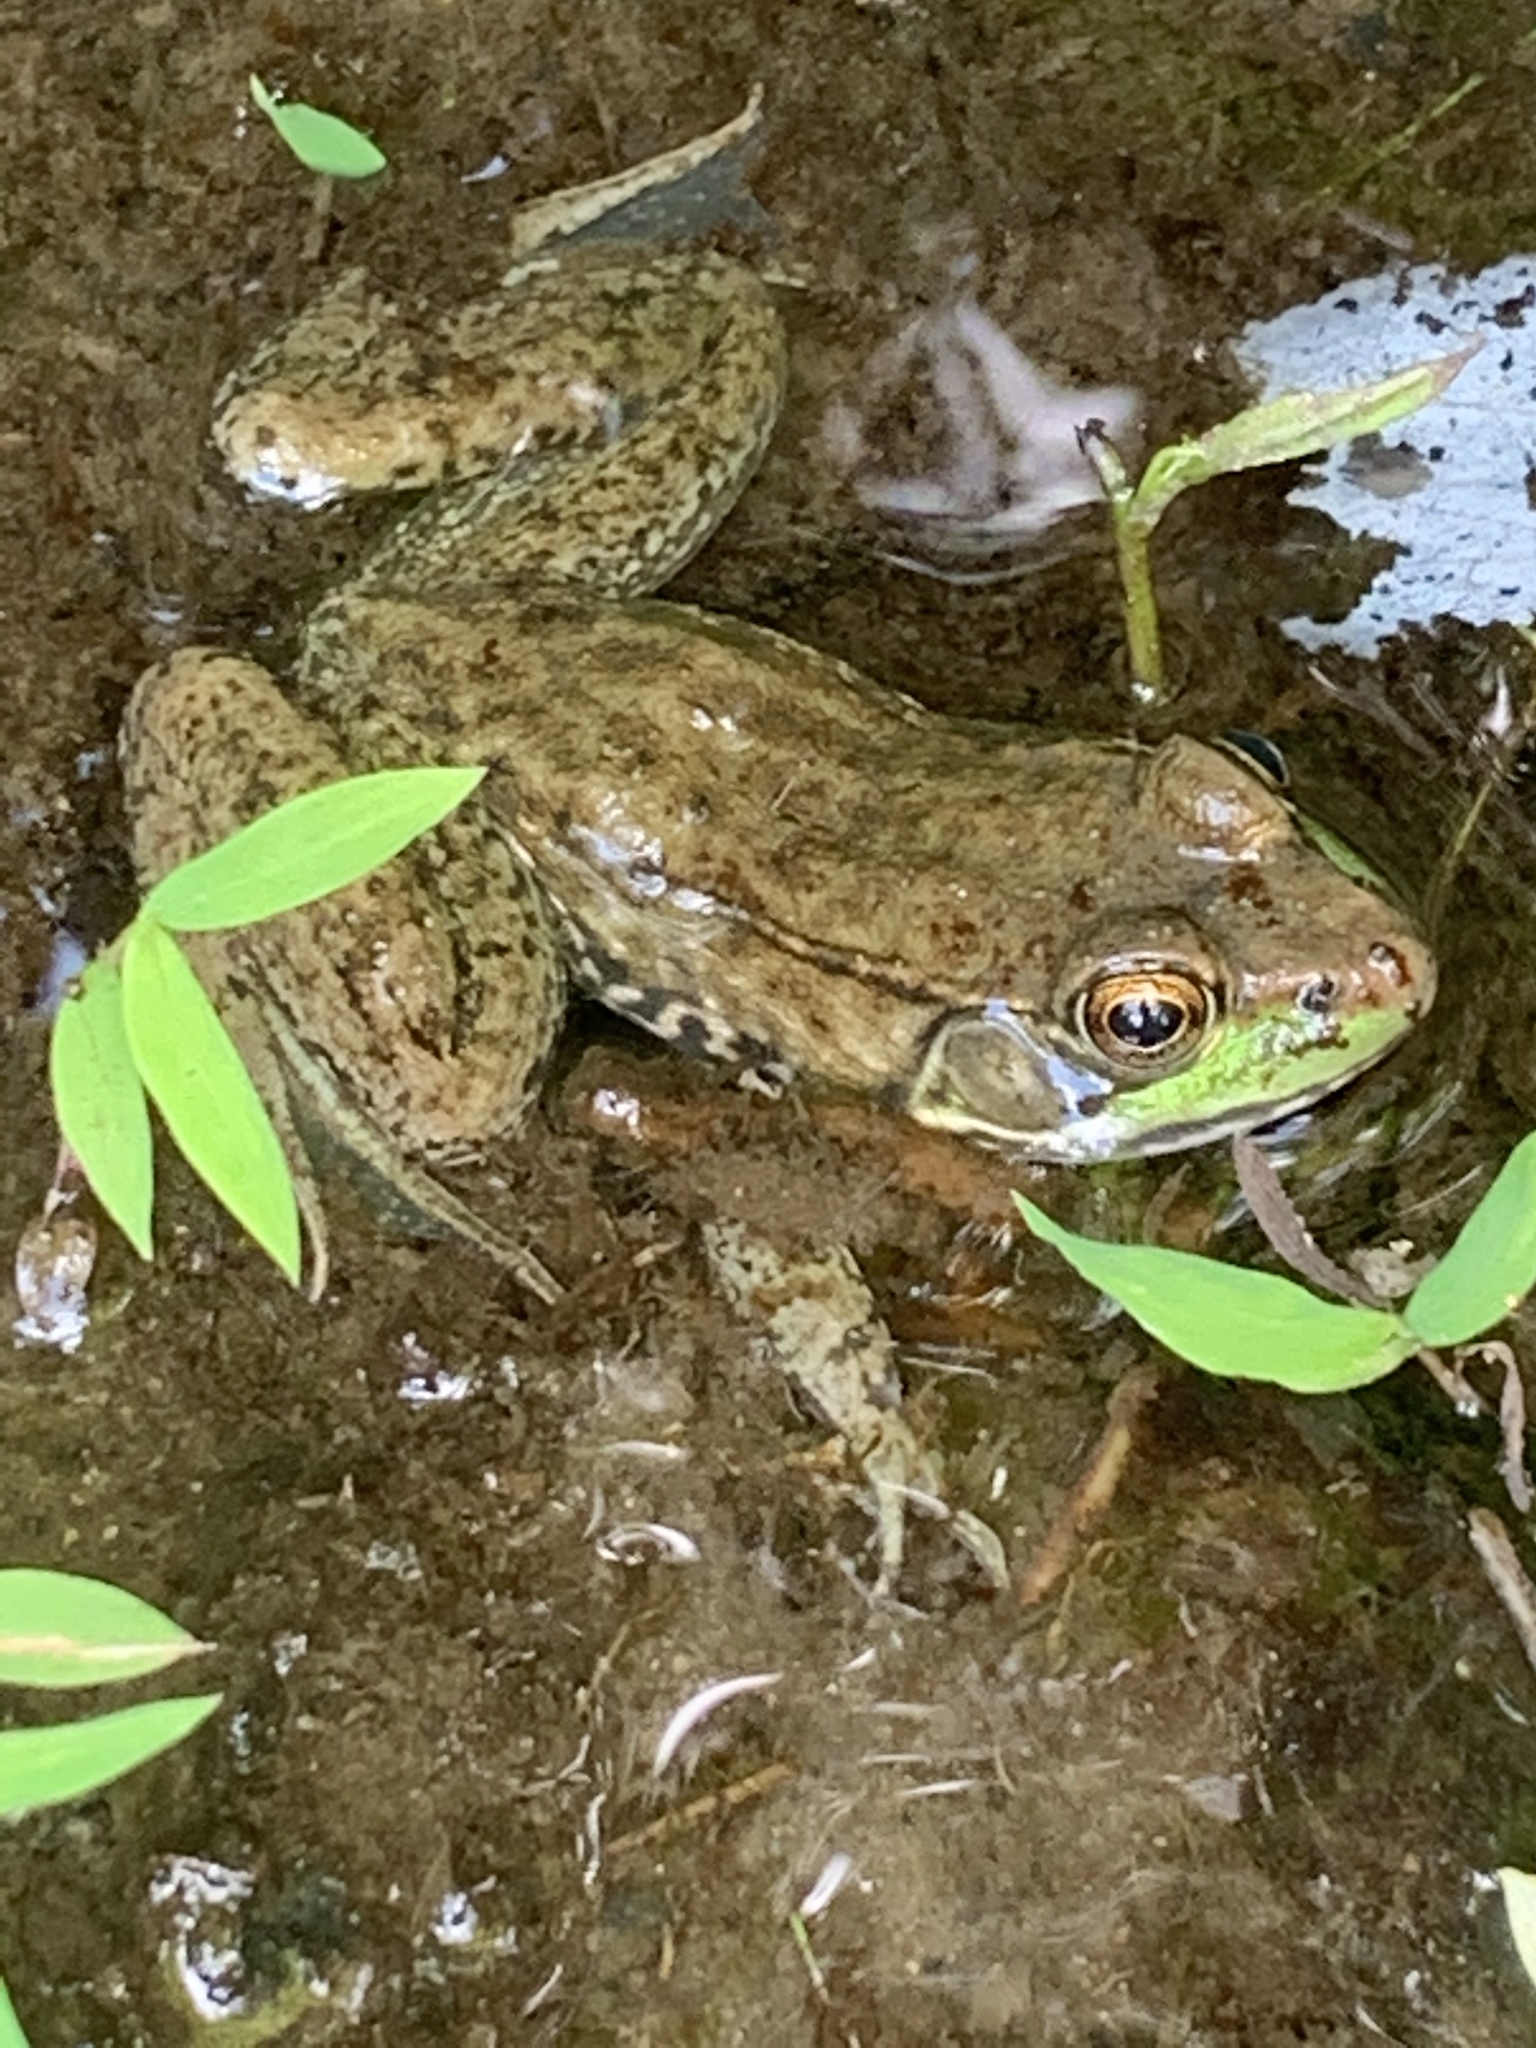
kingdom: Animalia
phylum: Chordata
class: Amphibia
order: Anura
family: Ranidae
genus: Lithobates
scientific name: Lithobates clamitans
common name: Green frog
